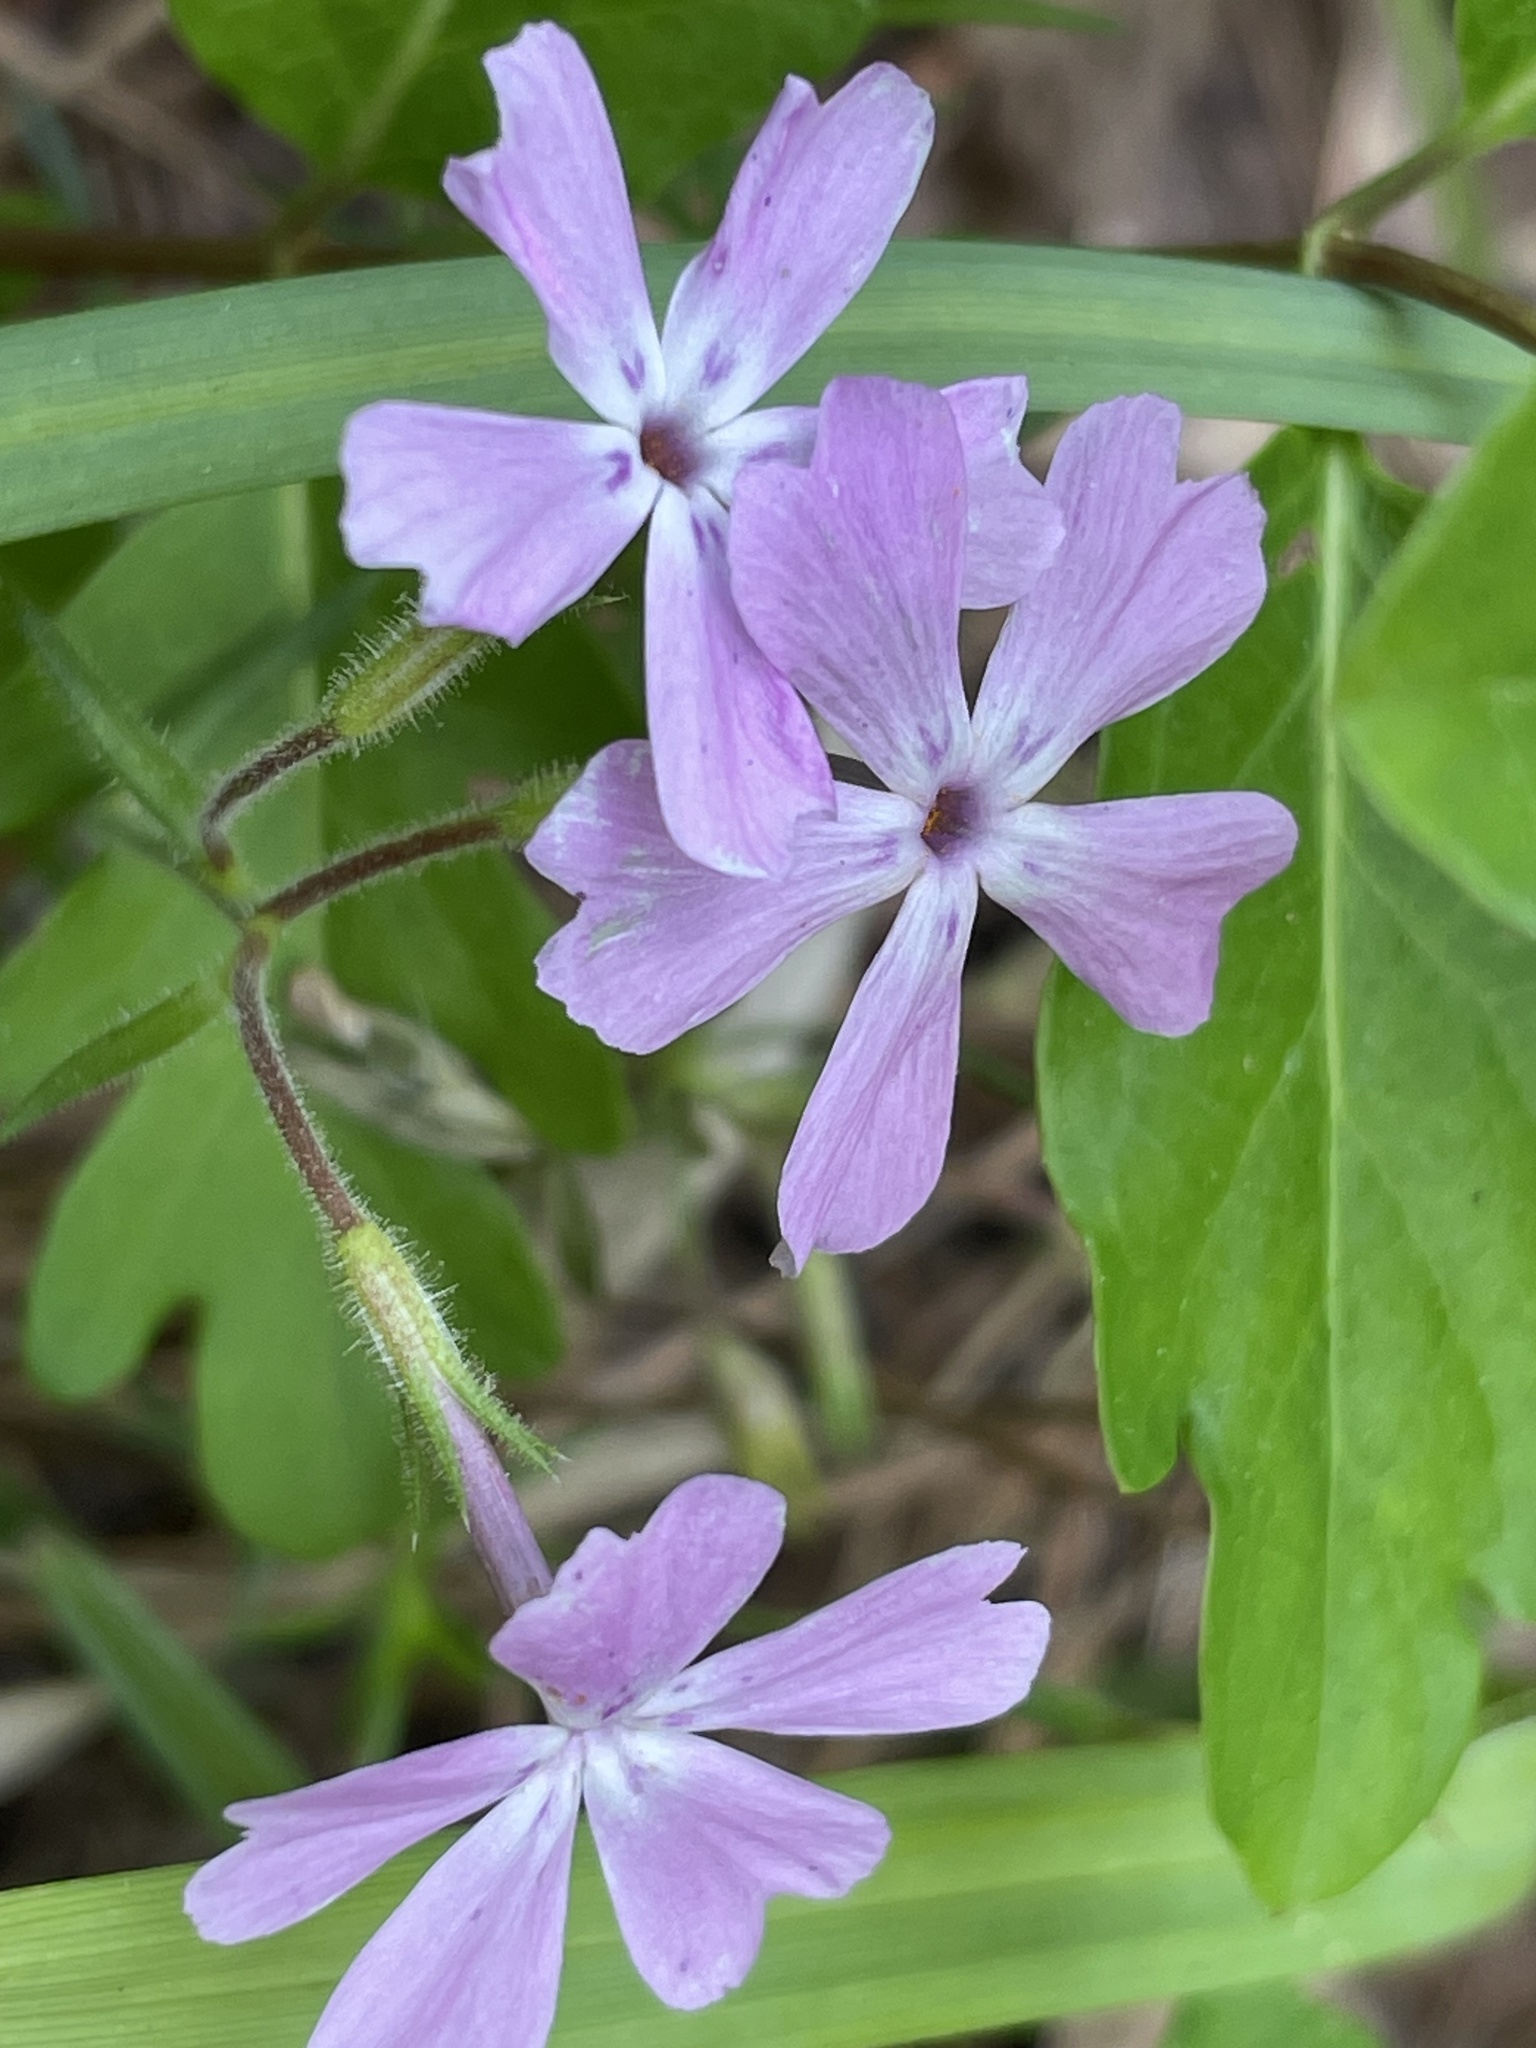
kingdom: Plantae
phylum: Tracheophyta
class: Magnoliopsida
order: Ericales
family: Polemoniaceae
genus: Phlox
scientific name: Phlox nivalis
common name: Trailing phlox
